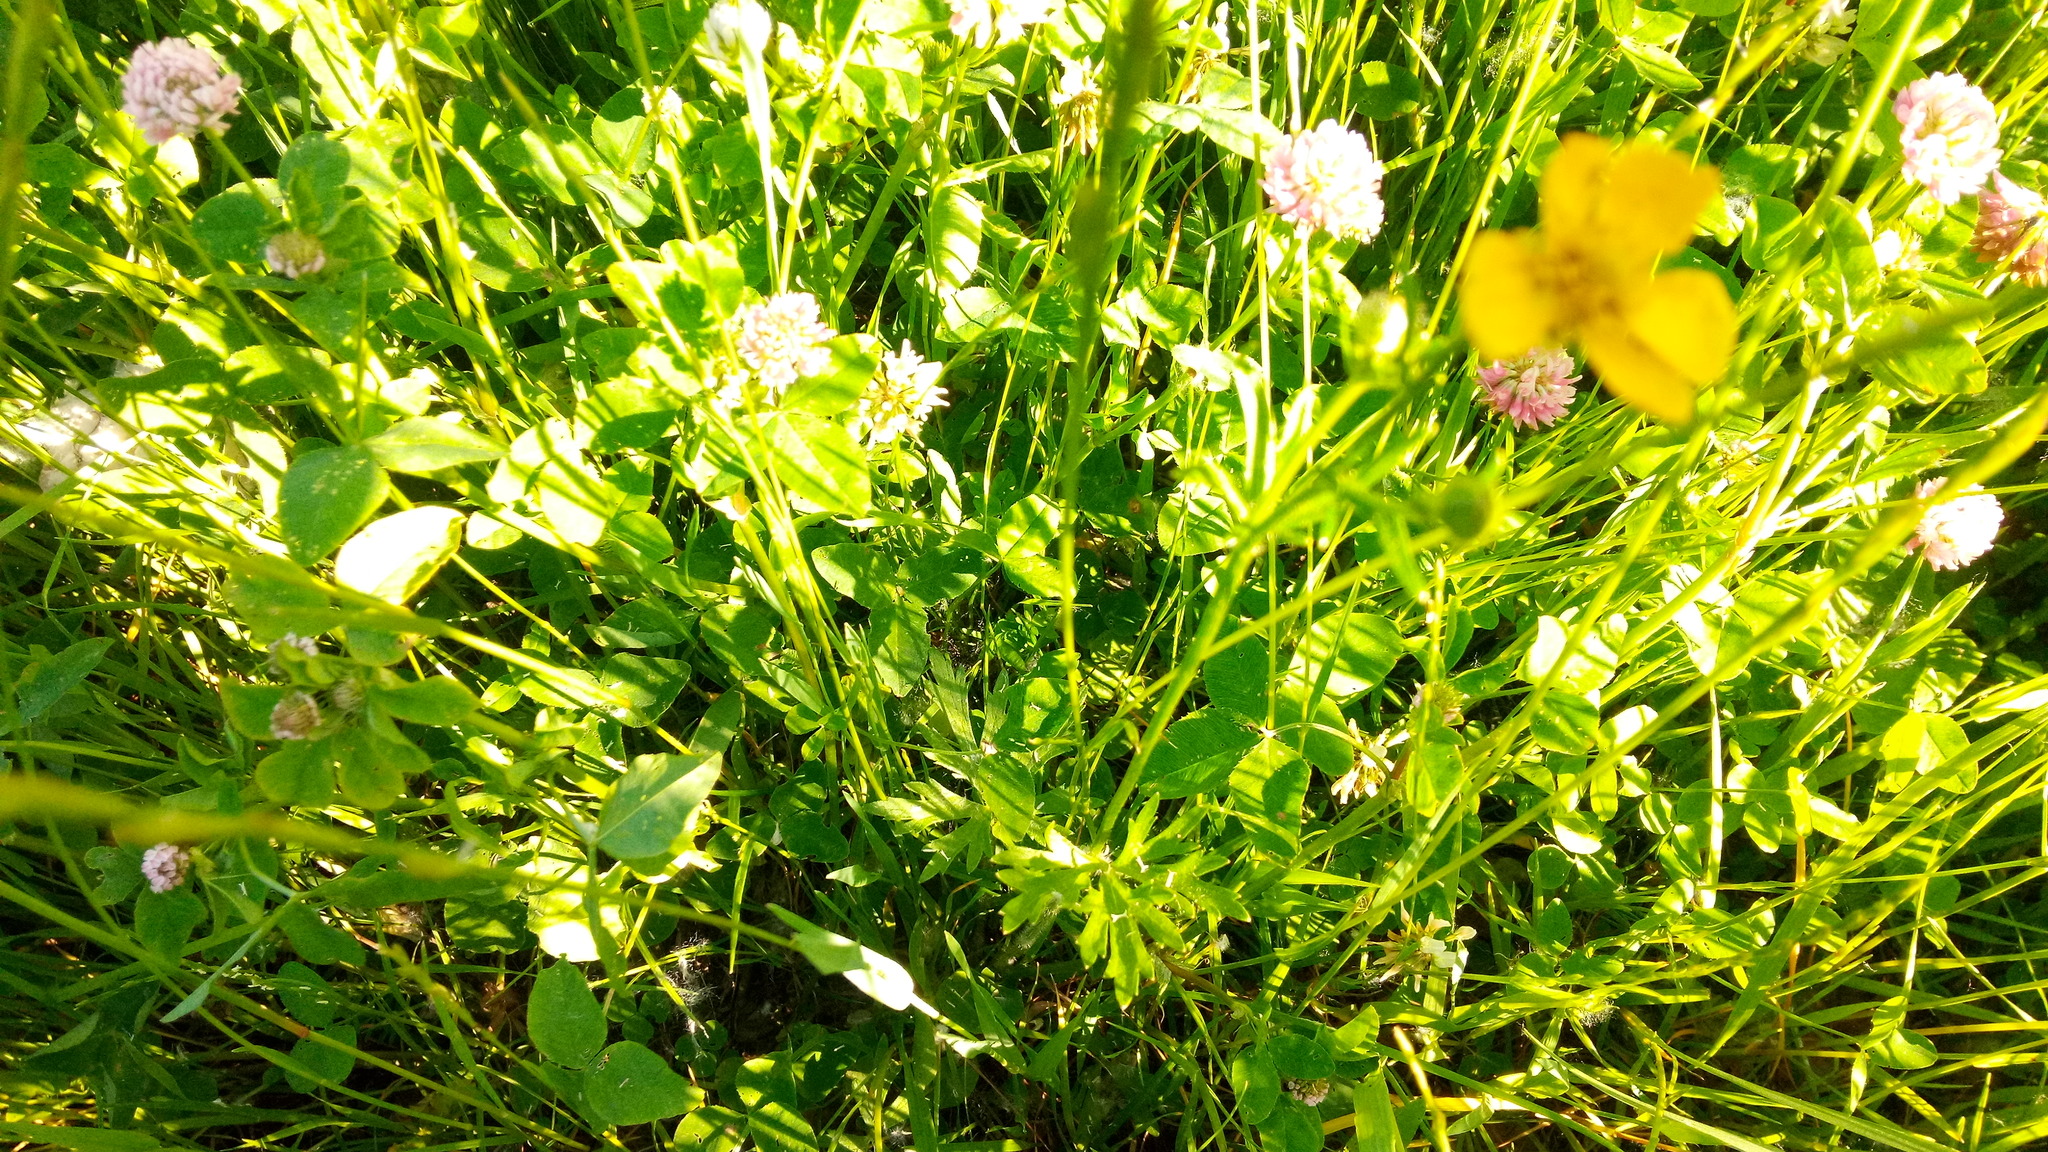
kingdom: Plantae
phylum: Tracheophyta
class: Magnoliopsida
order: Ranunculales
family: Ranunculaceae
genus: Ranunculus
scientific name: Ranunculus polyanthemos
